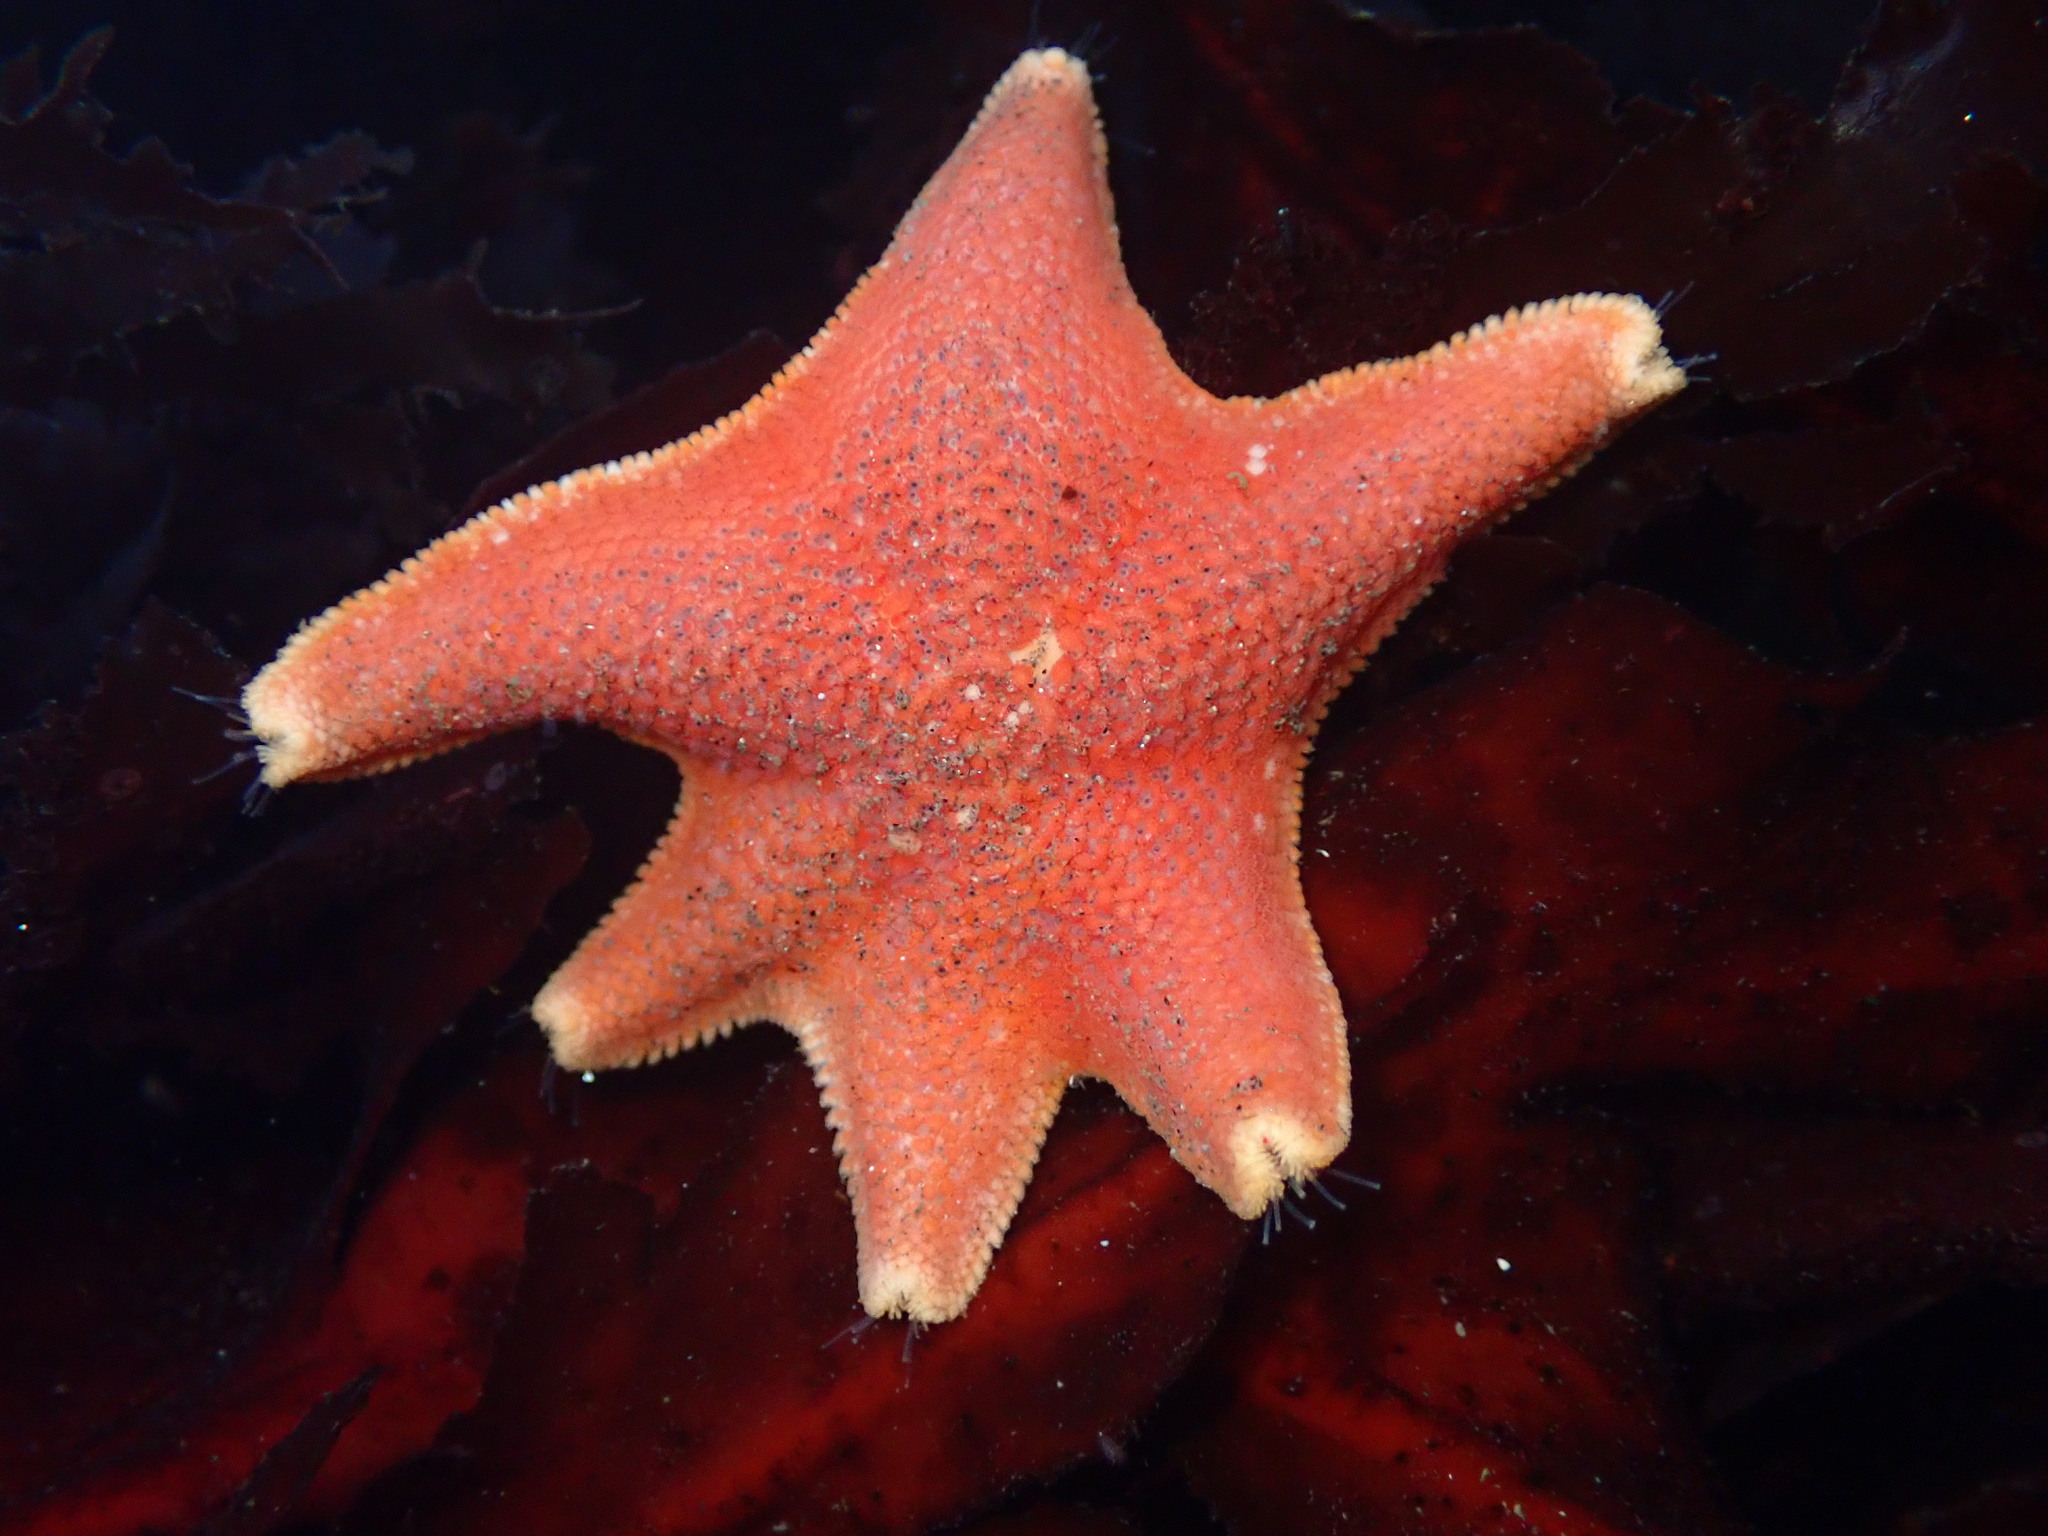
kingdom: Animalia
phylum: Echinodermata
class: Asteroidea
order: Valvatida
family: Asterinidae
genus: Patiria
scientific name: Patiria miniata
